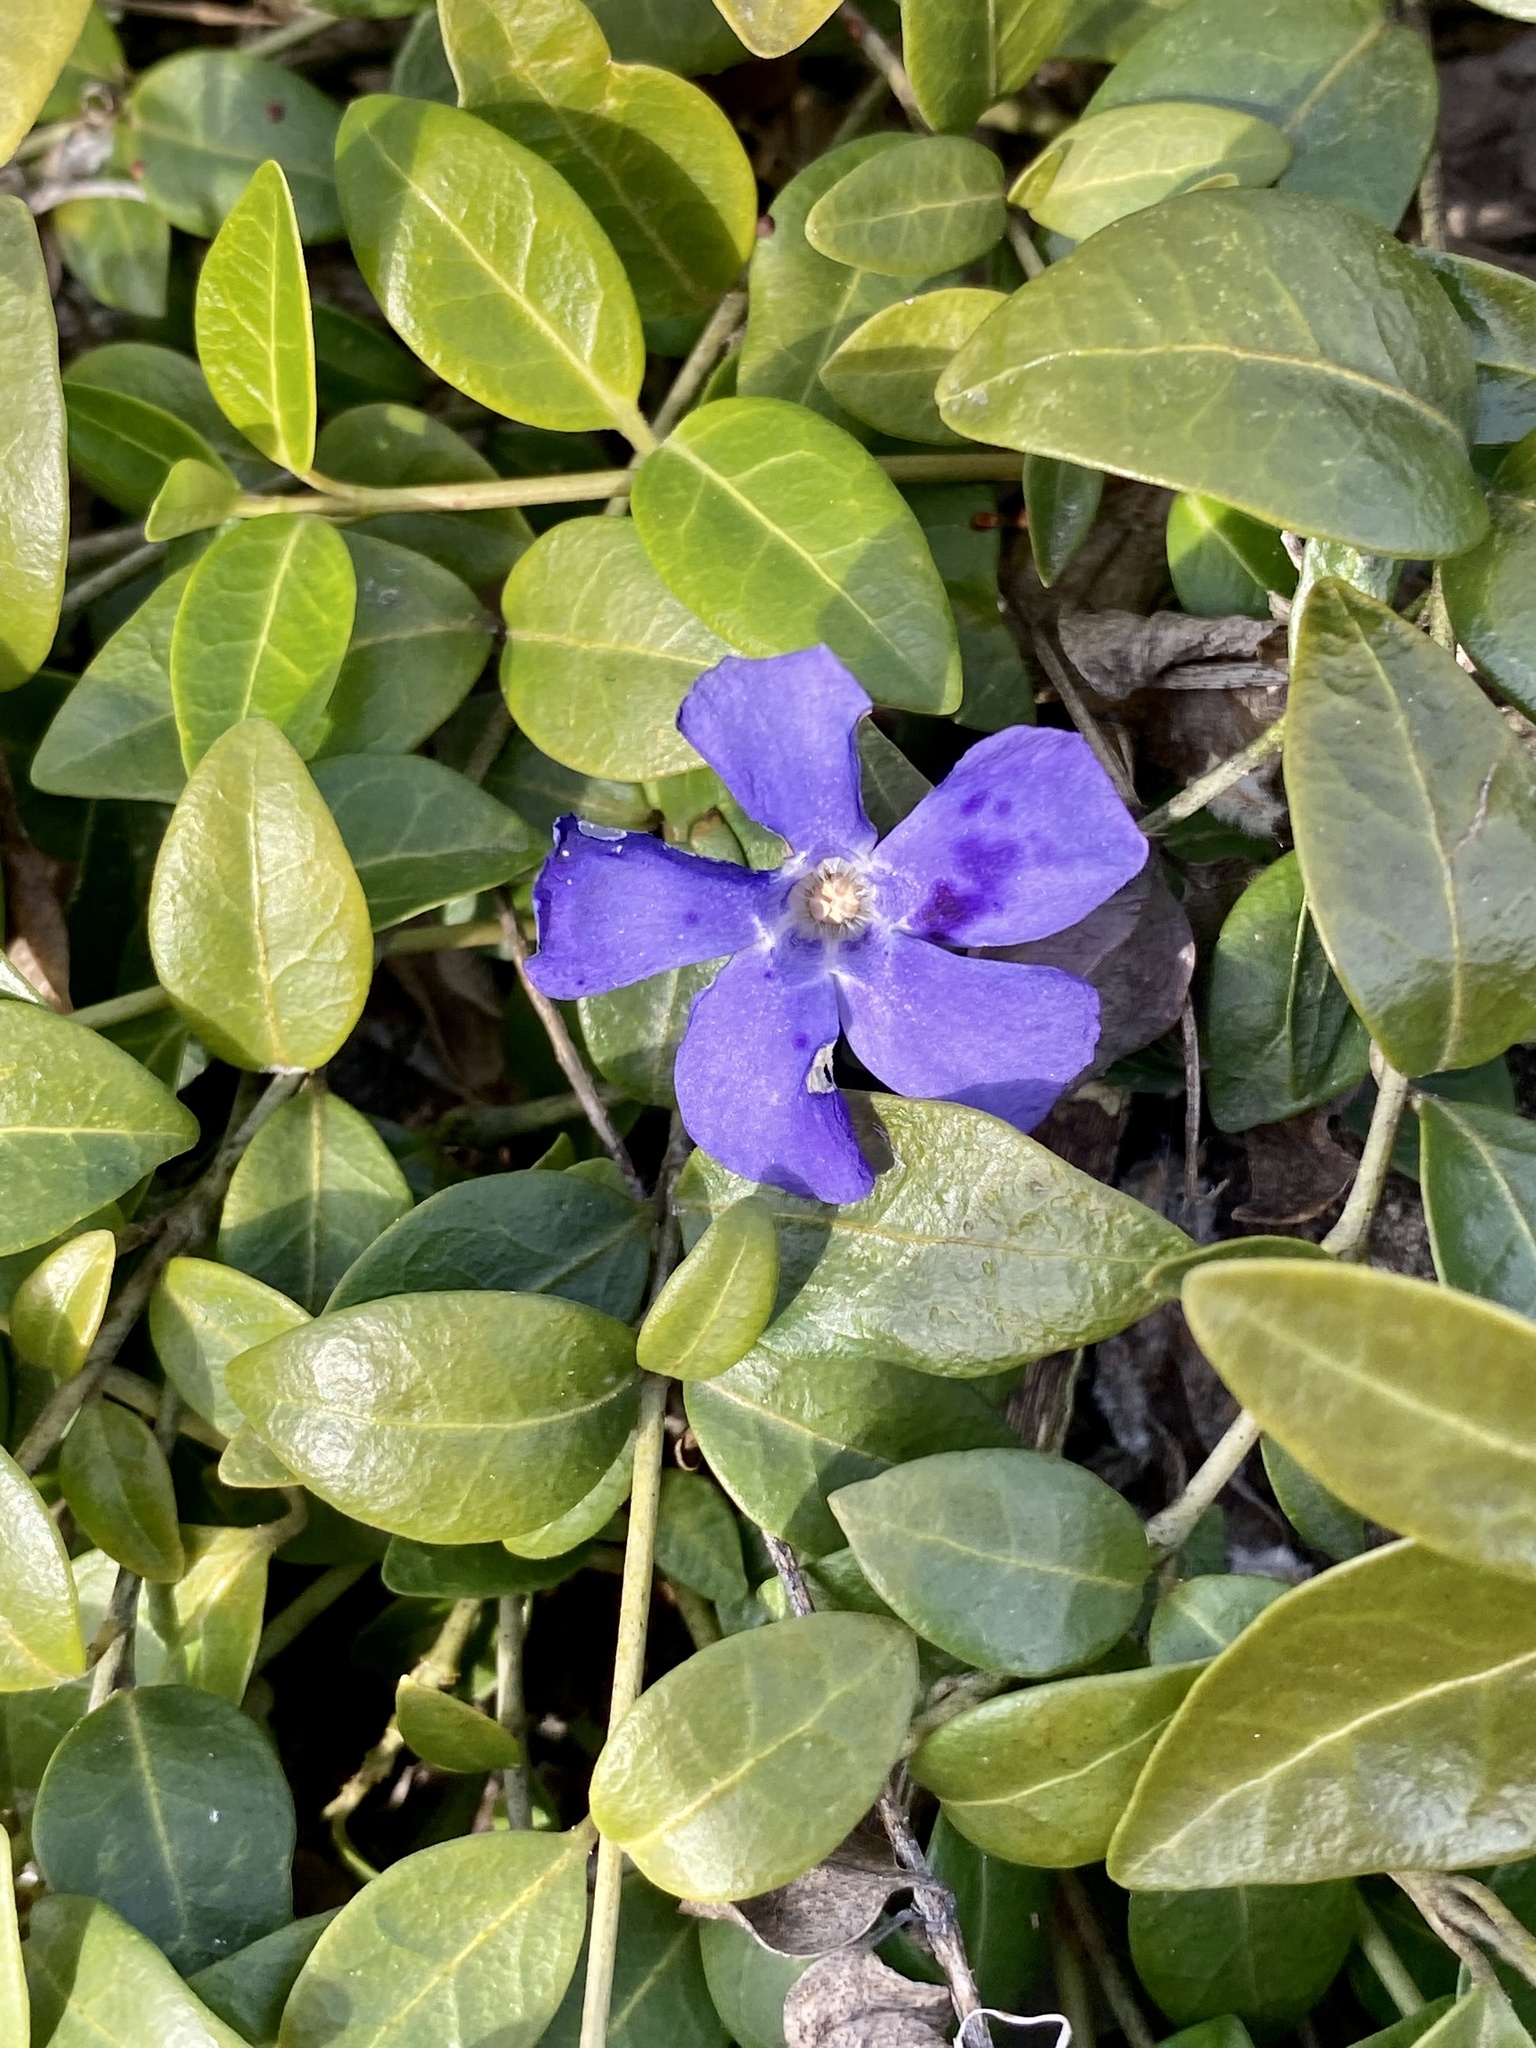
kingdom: Plantae
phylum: Tracheophyta
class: Magnoliopsida
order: Gentianales
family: Apocynaceae
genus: Vinca
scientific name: Vinca minor
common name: Lesser periwinkle
